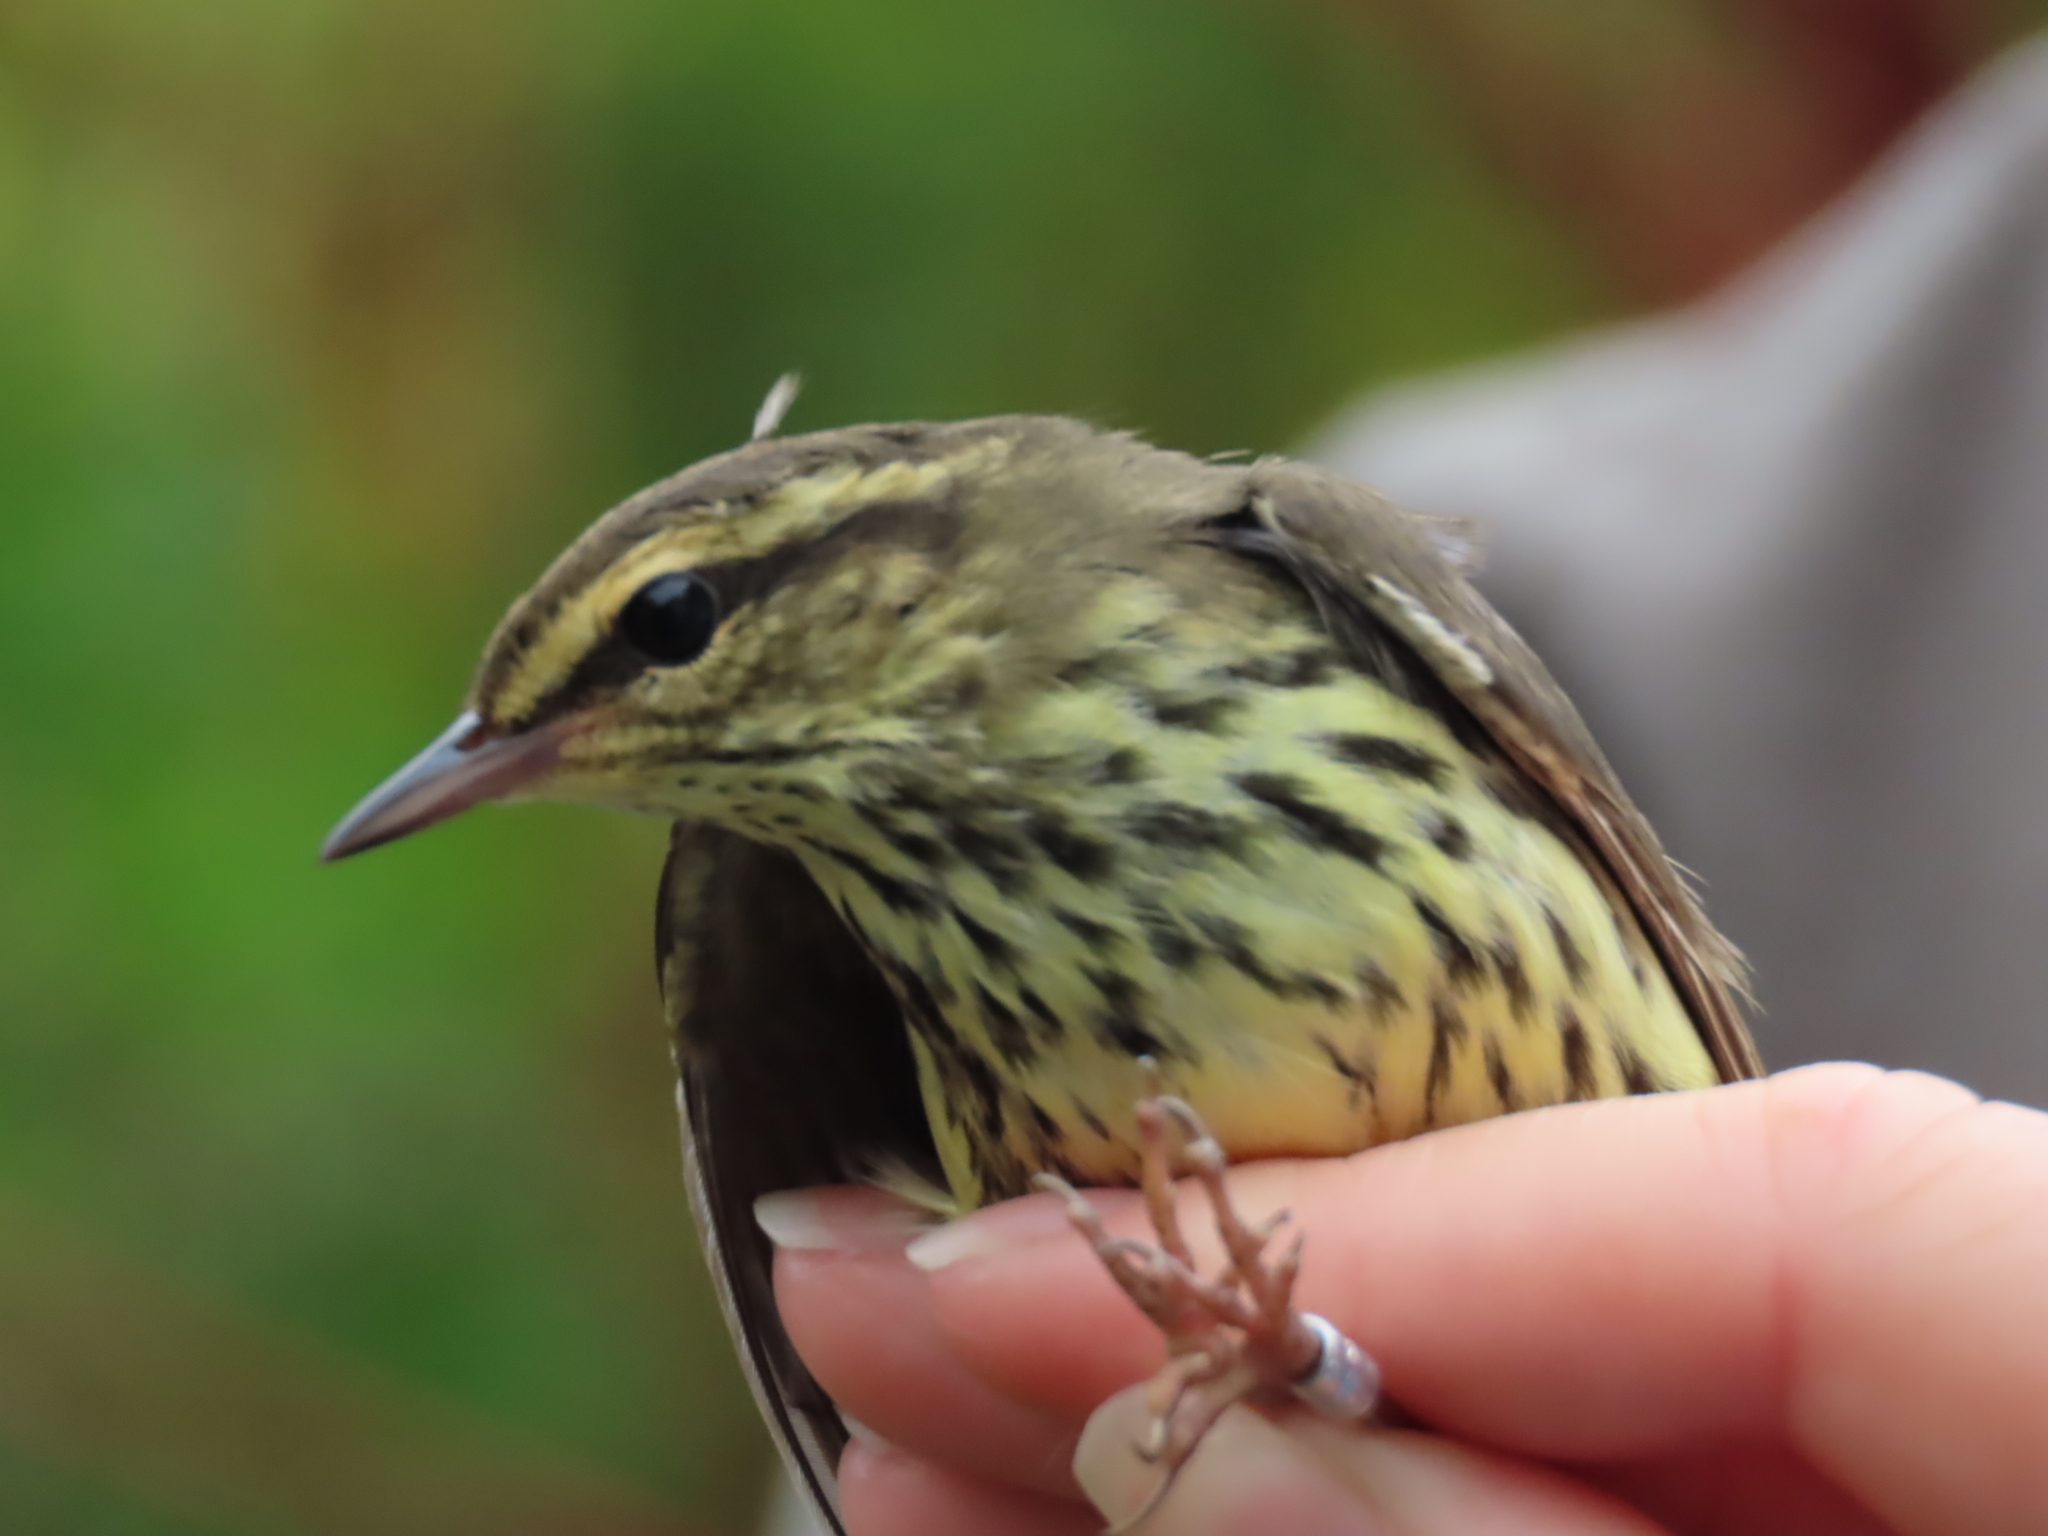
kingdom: Animalia
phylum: Chordata
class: Aves
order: Passeriformes
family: Parulidae
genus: Parkesia
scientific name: Parkesia noveboracensis
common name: Northern waterthrush
